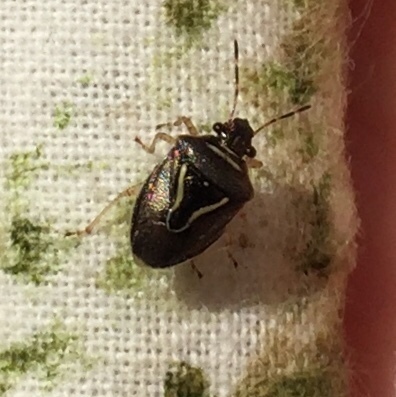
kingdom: Animalia
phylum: Arthropoda
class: Insecta
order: Hemiptera
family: Pentatomidae
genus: Mormidea
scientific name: Mormidea lugens
